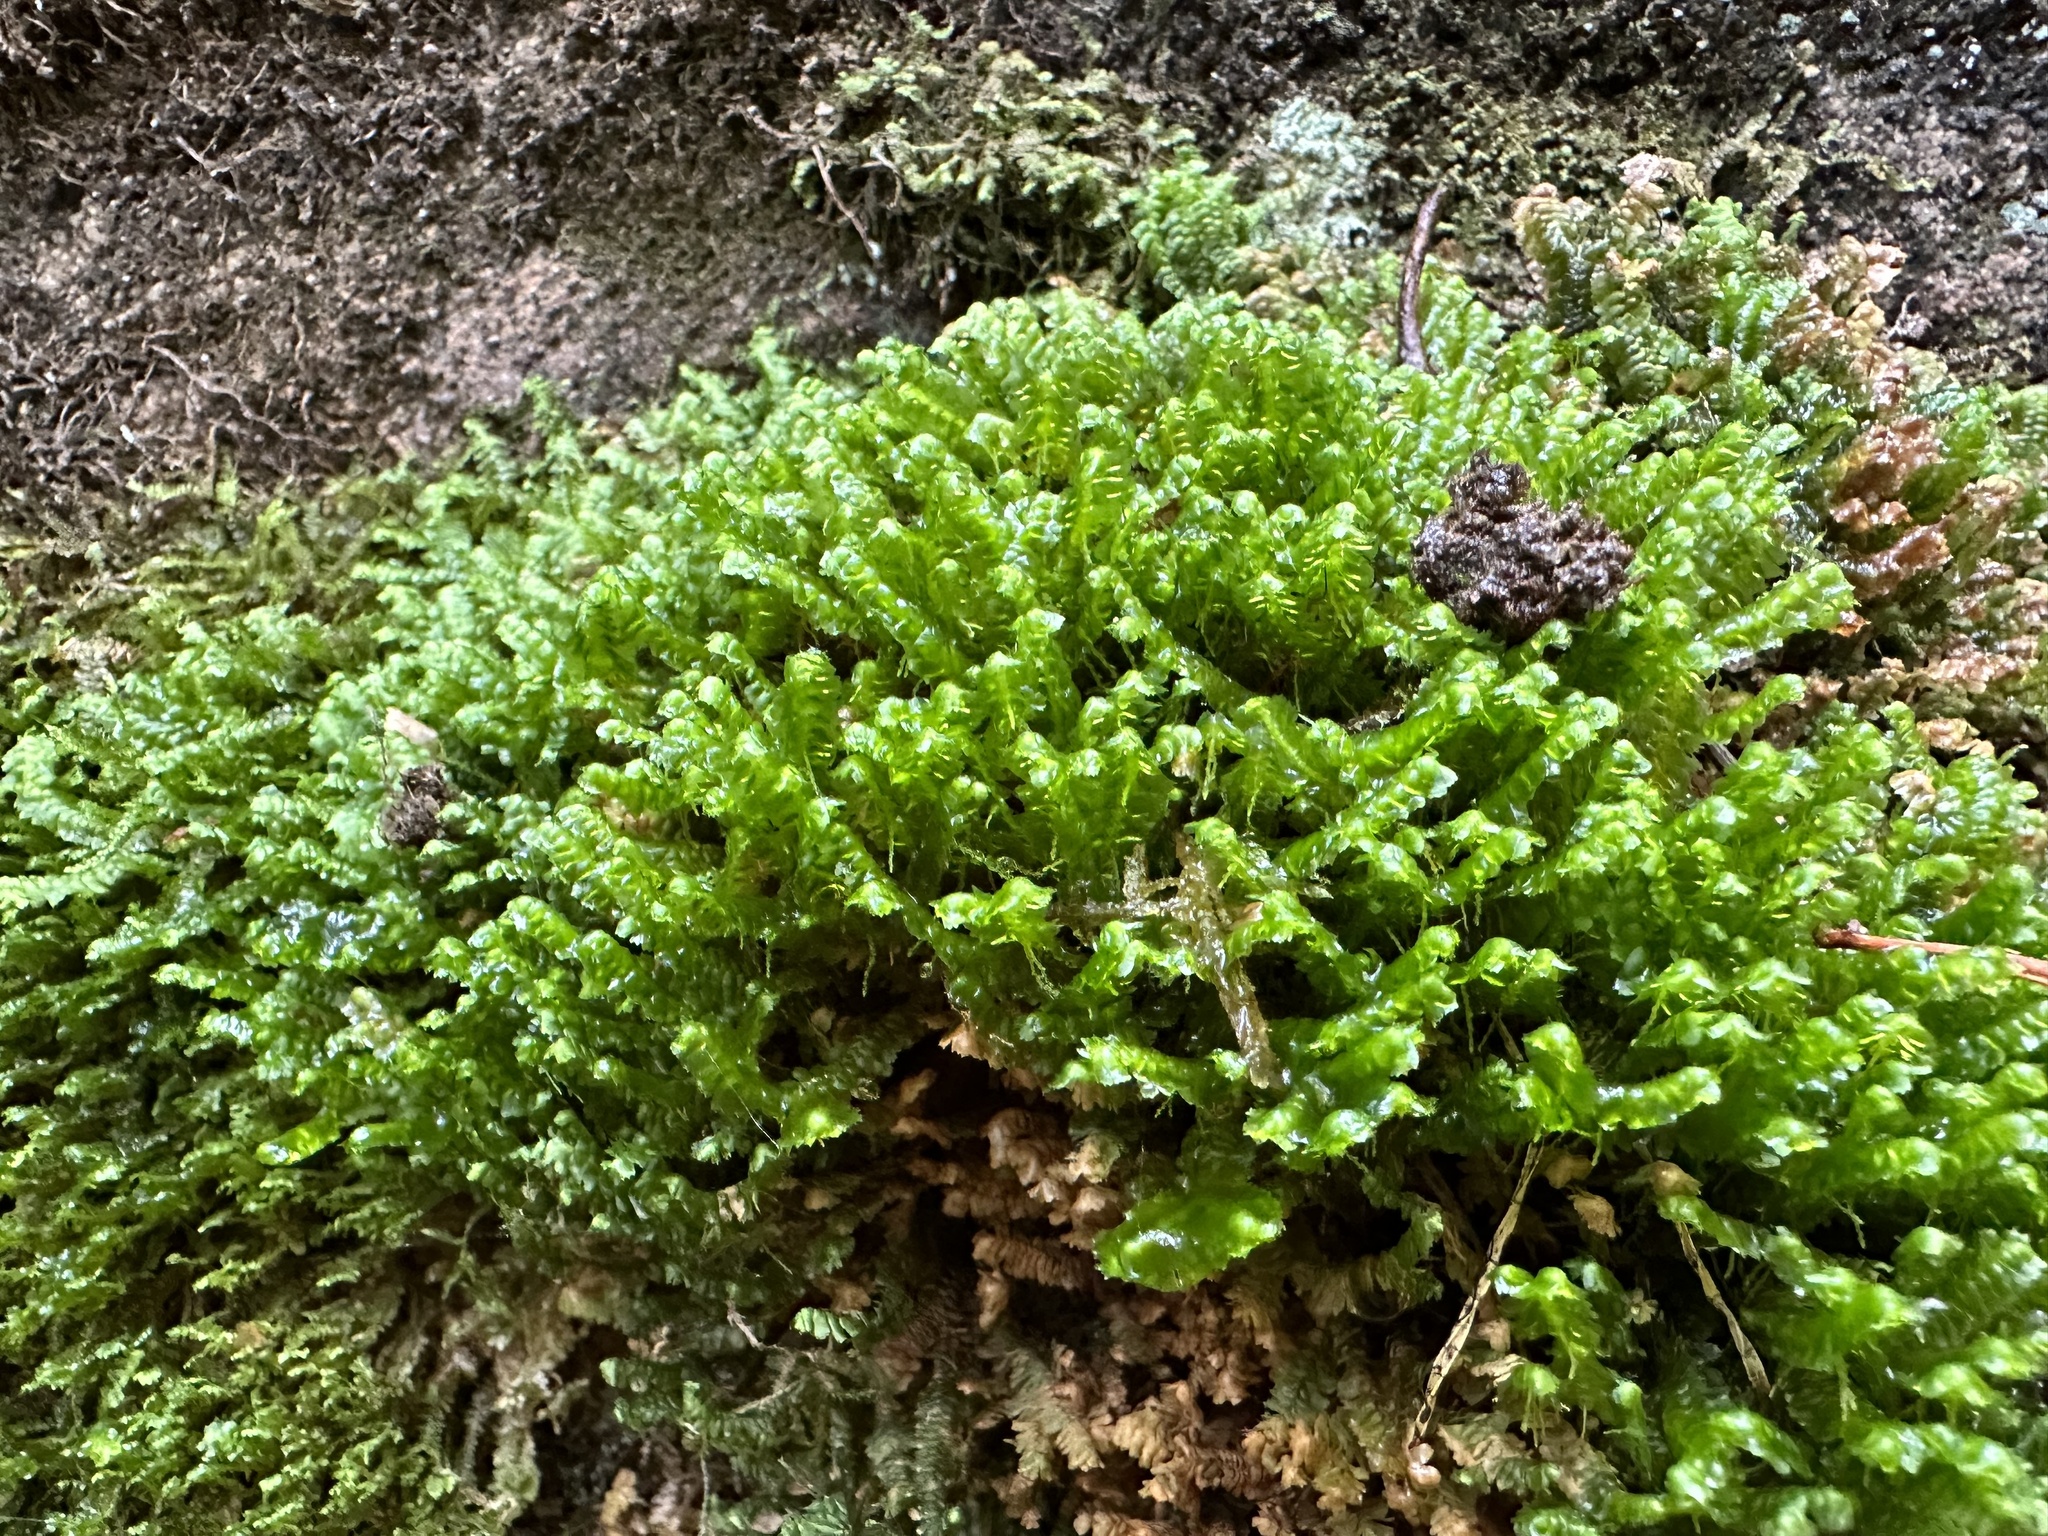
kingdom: Plantae
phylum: Marchantiophyta
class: Jungermanniopsida
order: Jungermanniales
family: Lepidoziaceae
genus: Bazzania
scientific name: Bazzania trilobata
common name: Three-lobed whipwort
